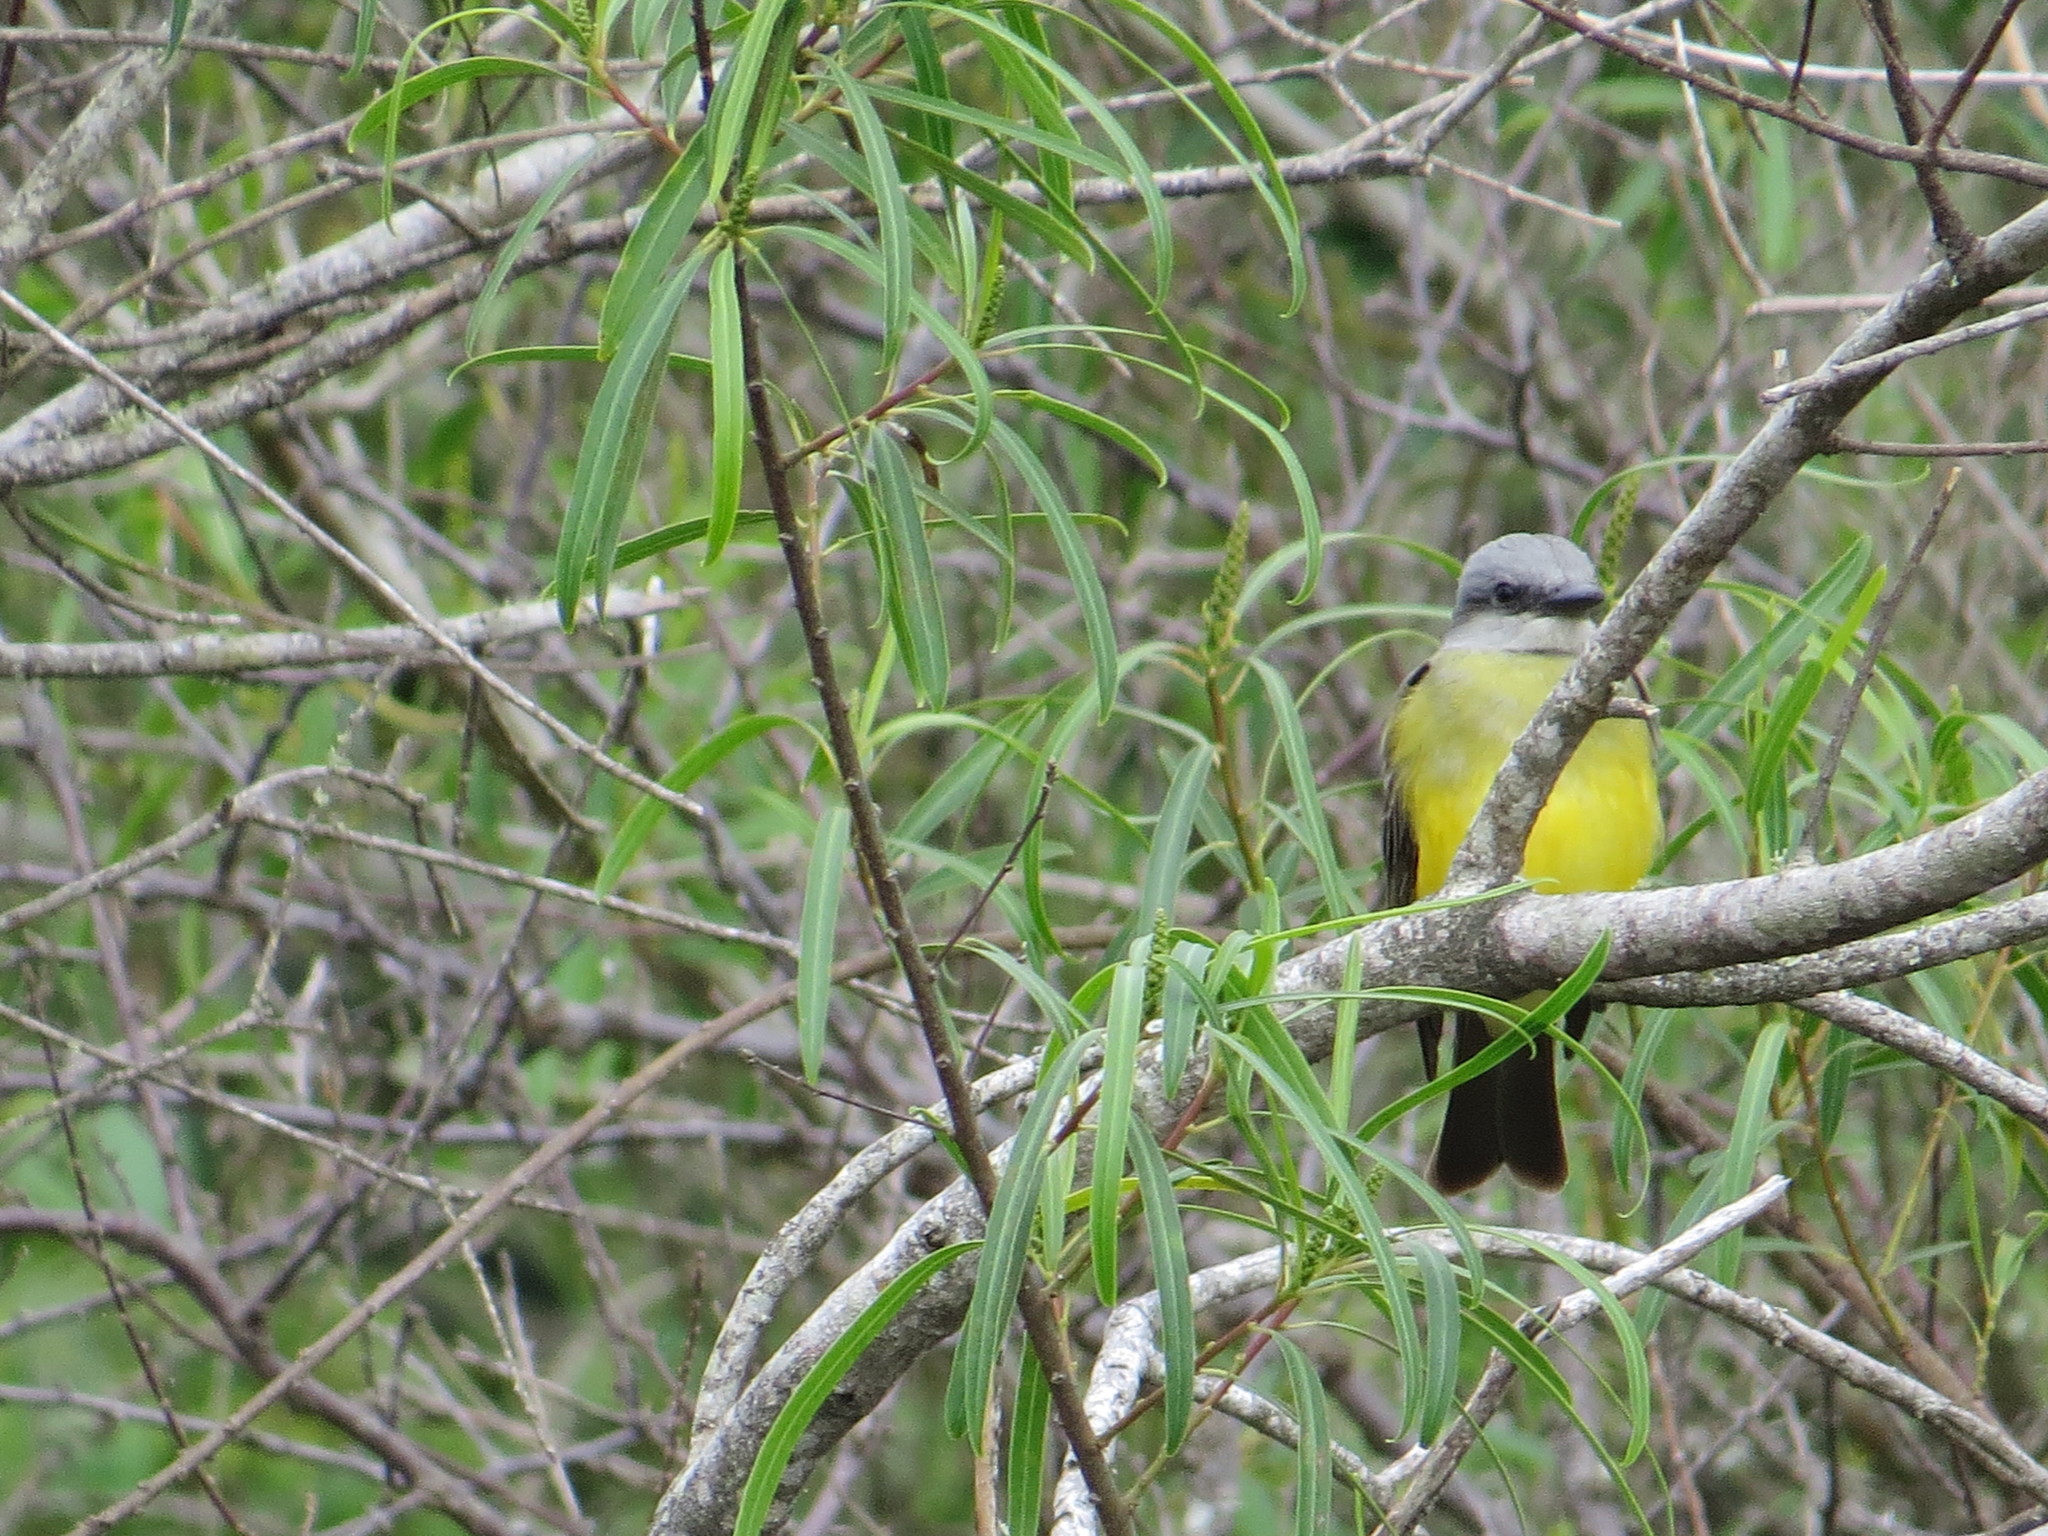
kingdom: Animalia
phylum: Chordata
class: Aves
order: Passeriformes
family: Tyrannidae
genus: Tyrannus
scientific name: Tyrannus melancholicus
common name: Tropical kingbird
